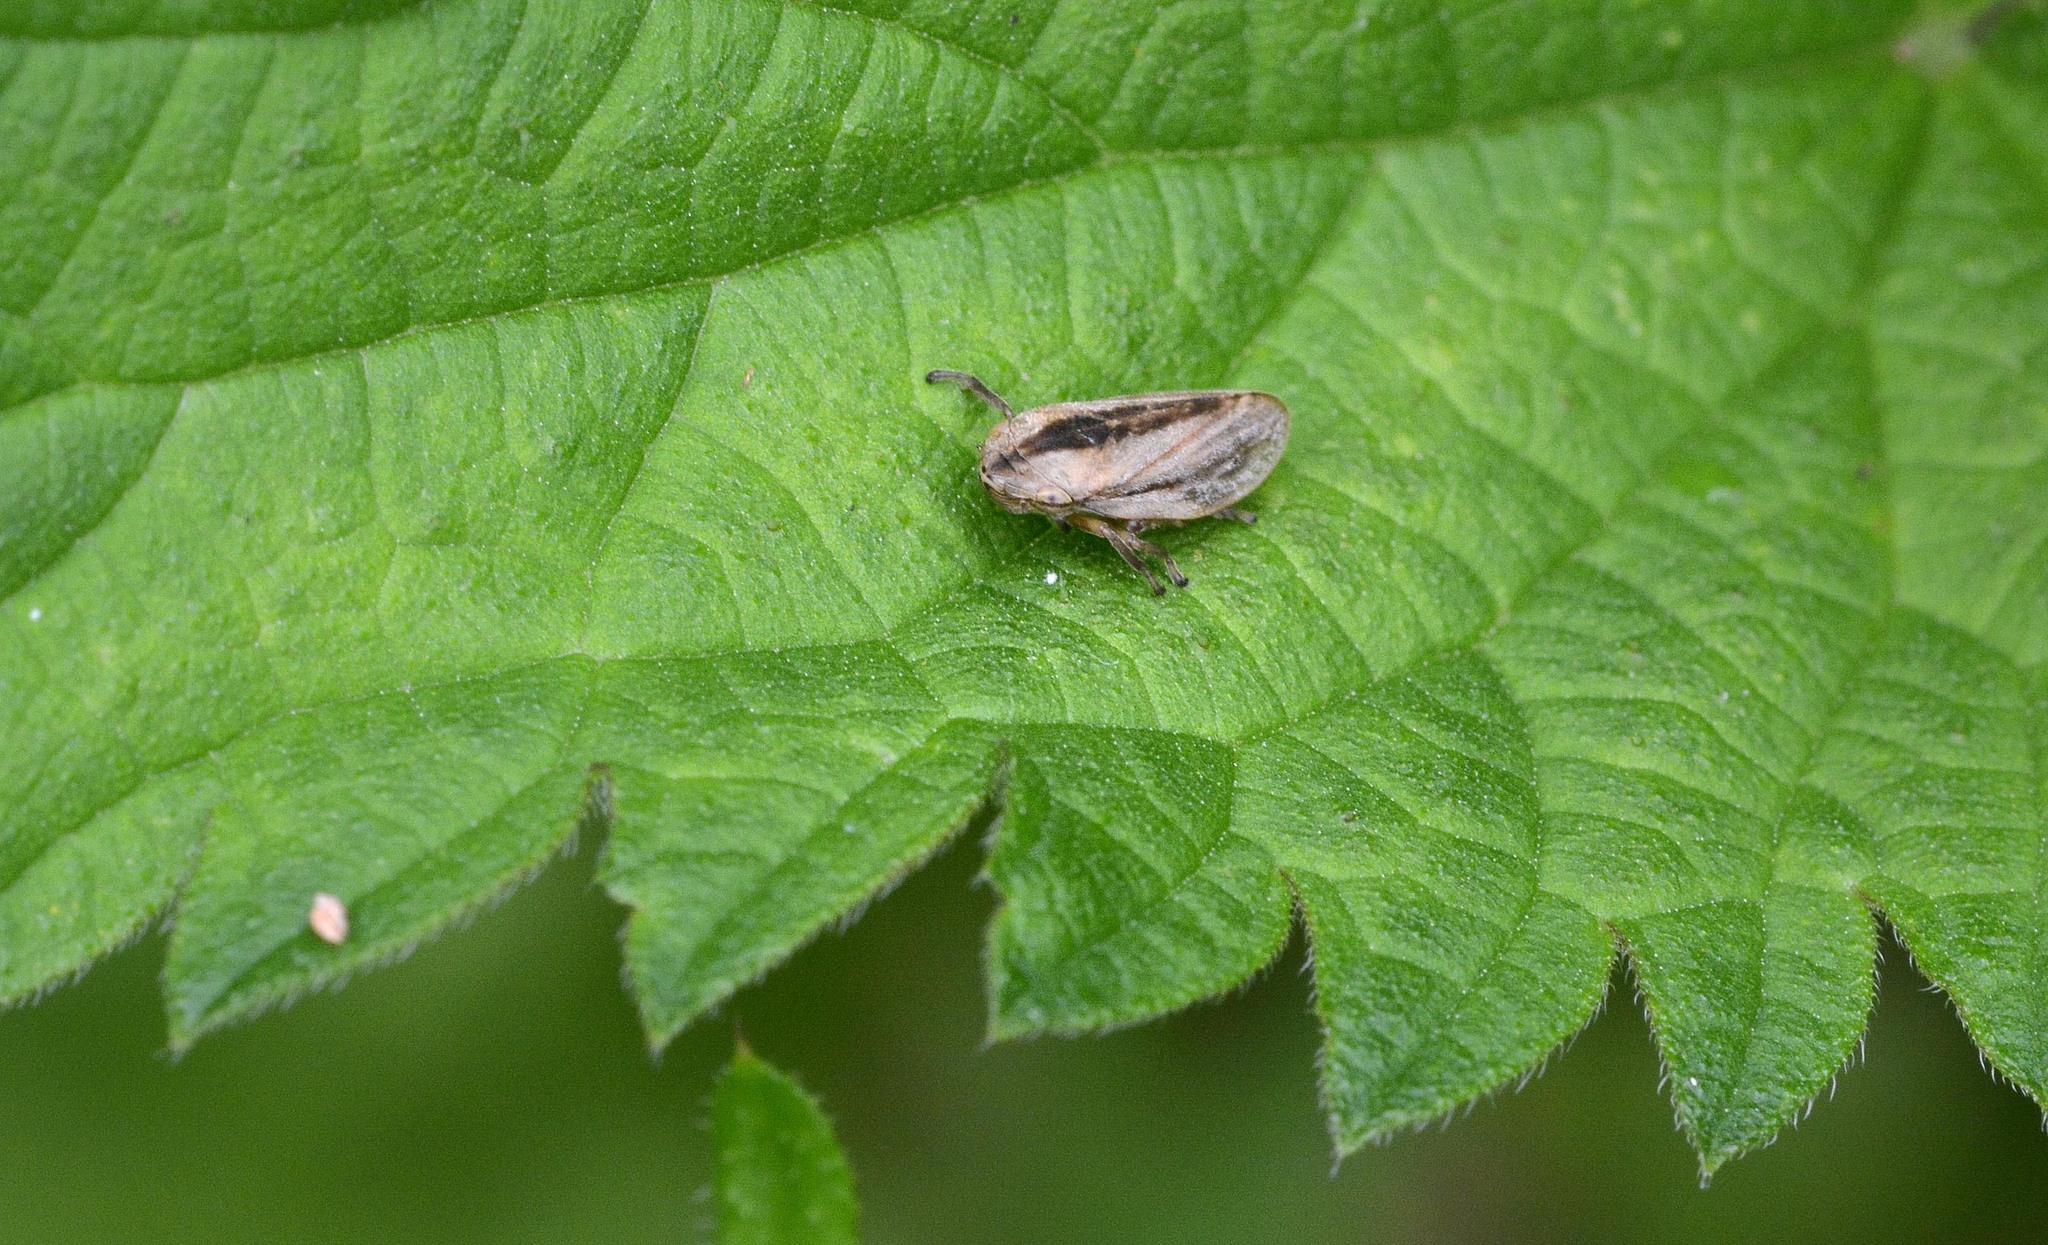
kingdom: Animalia
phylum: Arthropoda
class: Insecta
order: Hemiptera
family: Aphrophoridae
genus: Philaenus
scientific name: Philaenus spumarius
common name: Meadow spittlebug
